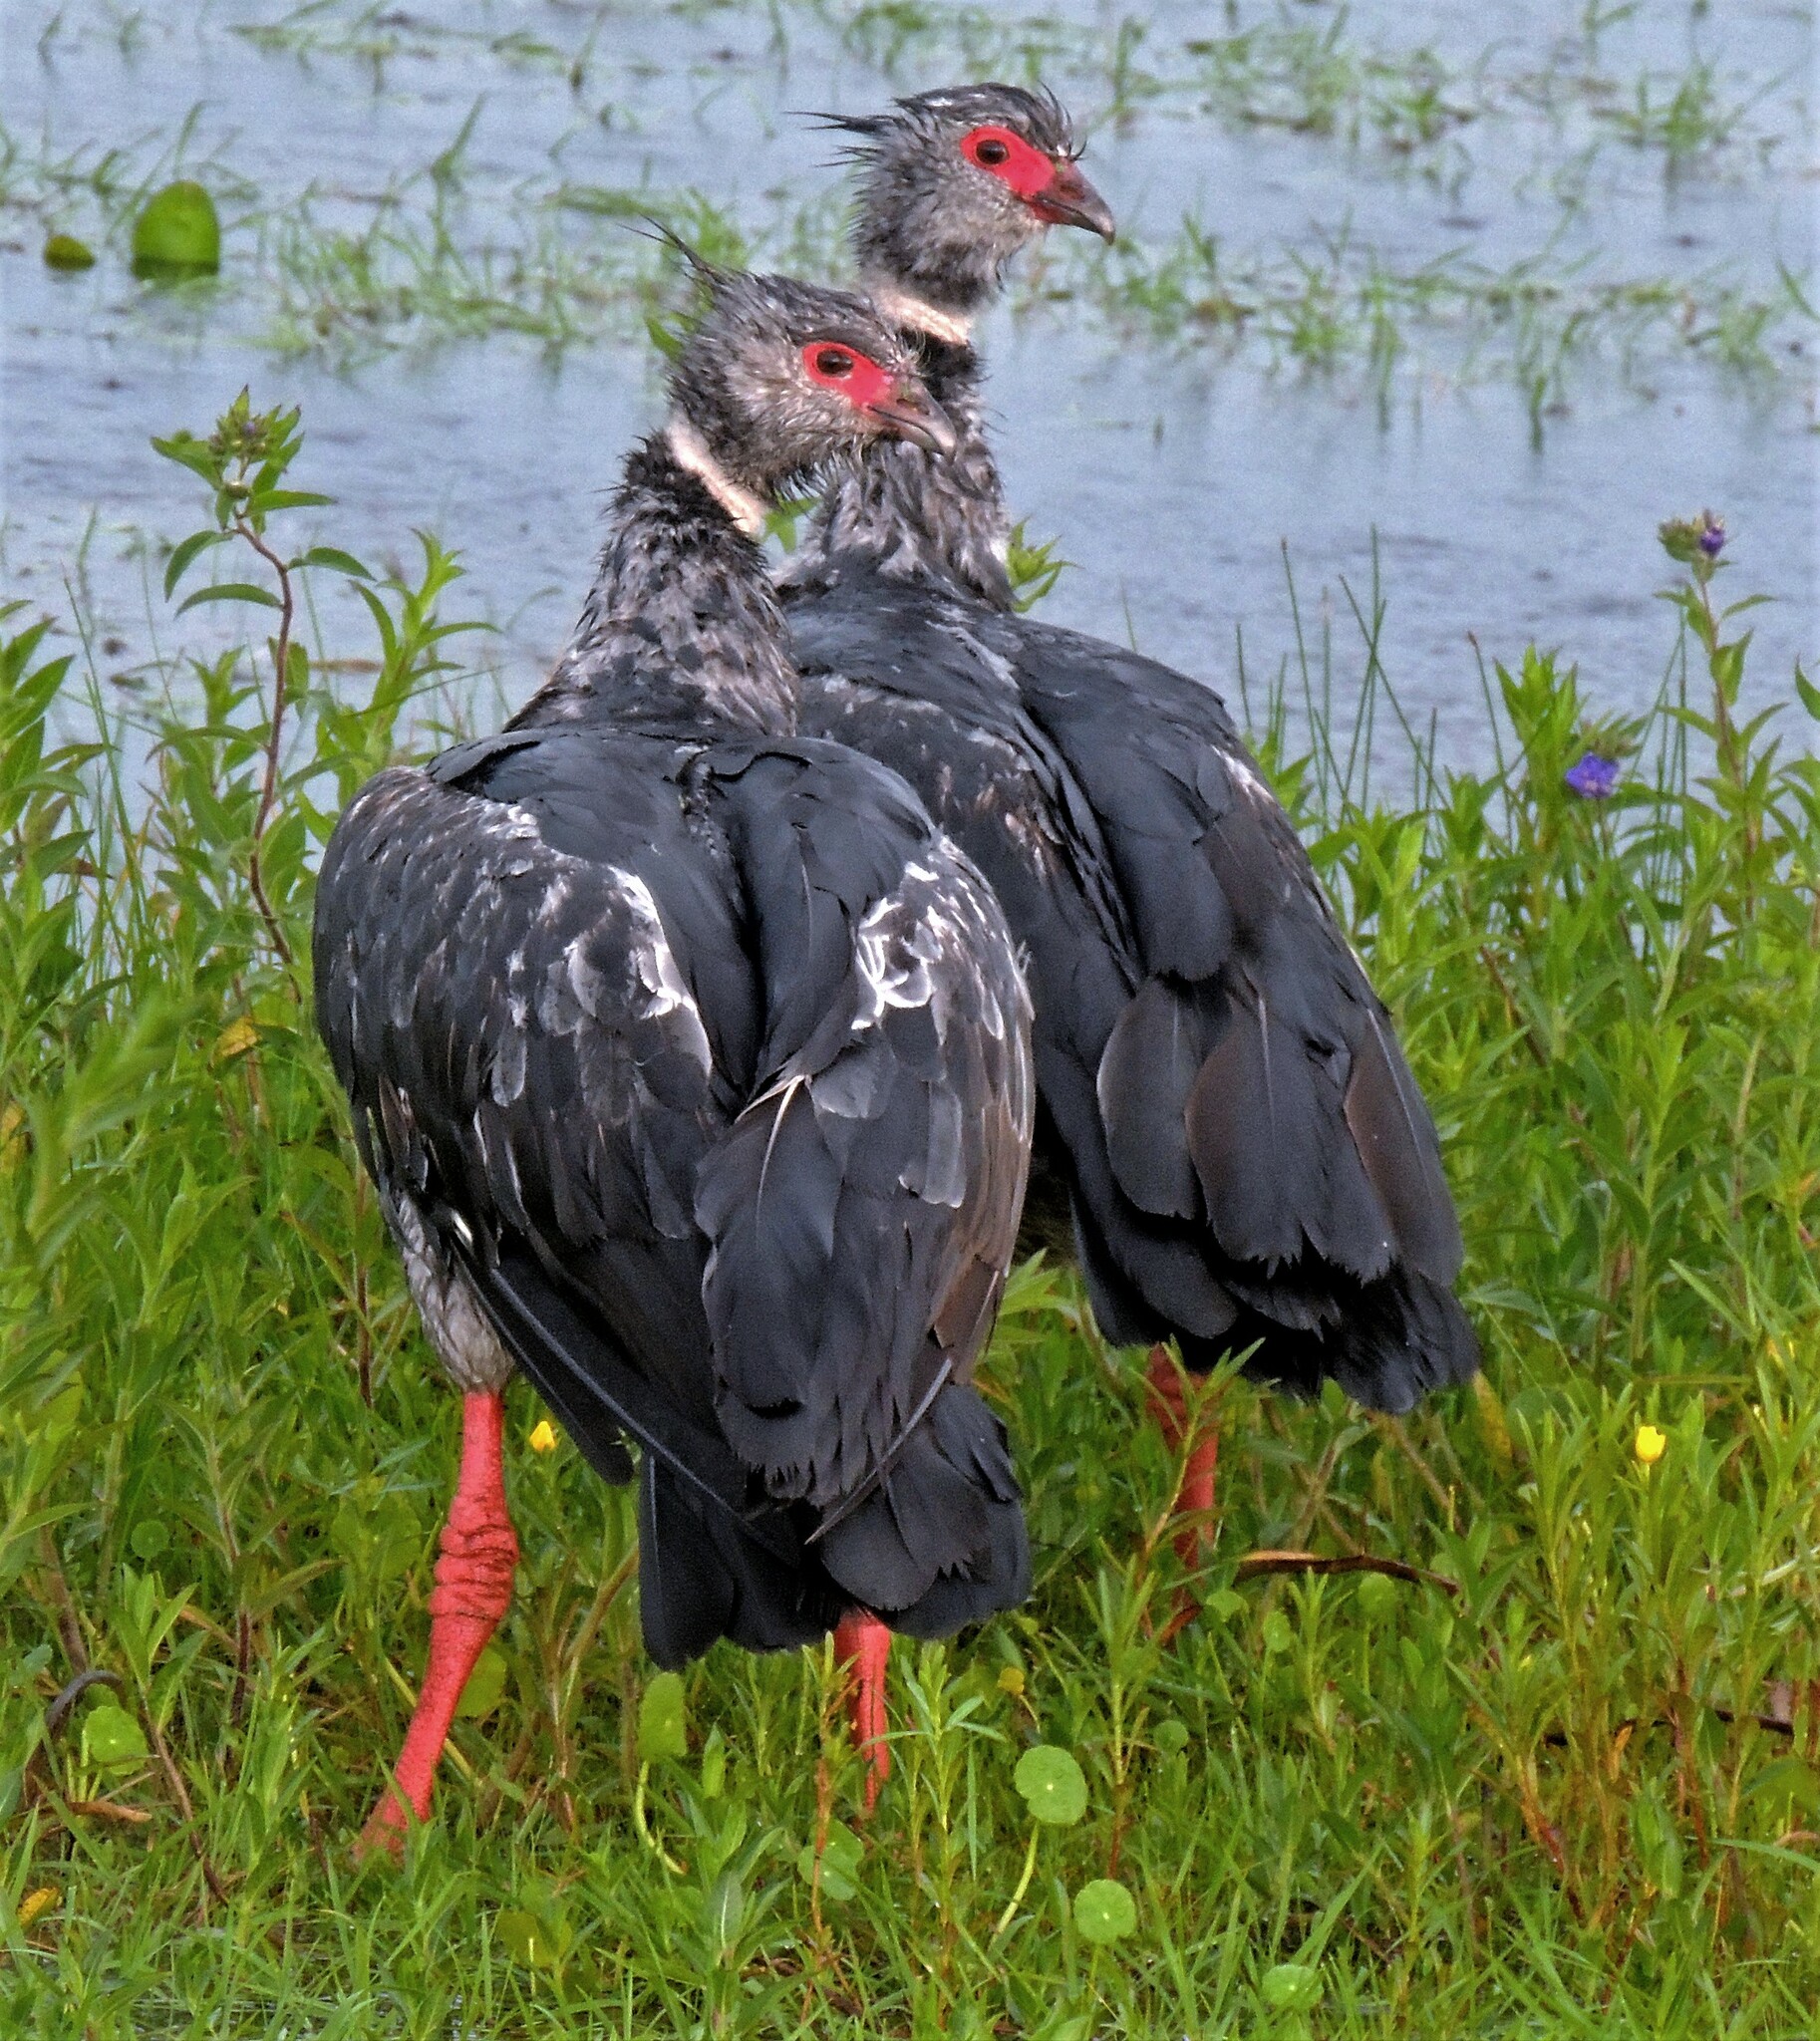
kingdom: Animalia
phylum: Chordata
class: Aves
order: Anseriformes
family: Anhimidae
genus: Chauna
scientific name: Chauna torquata
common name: Southern screamer
